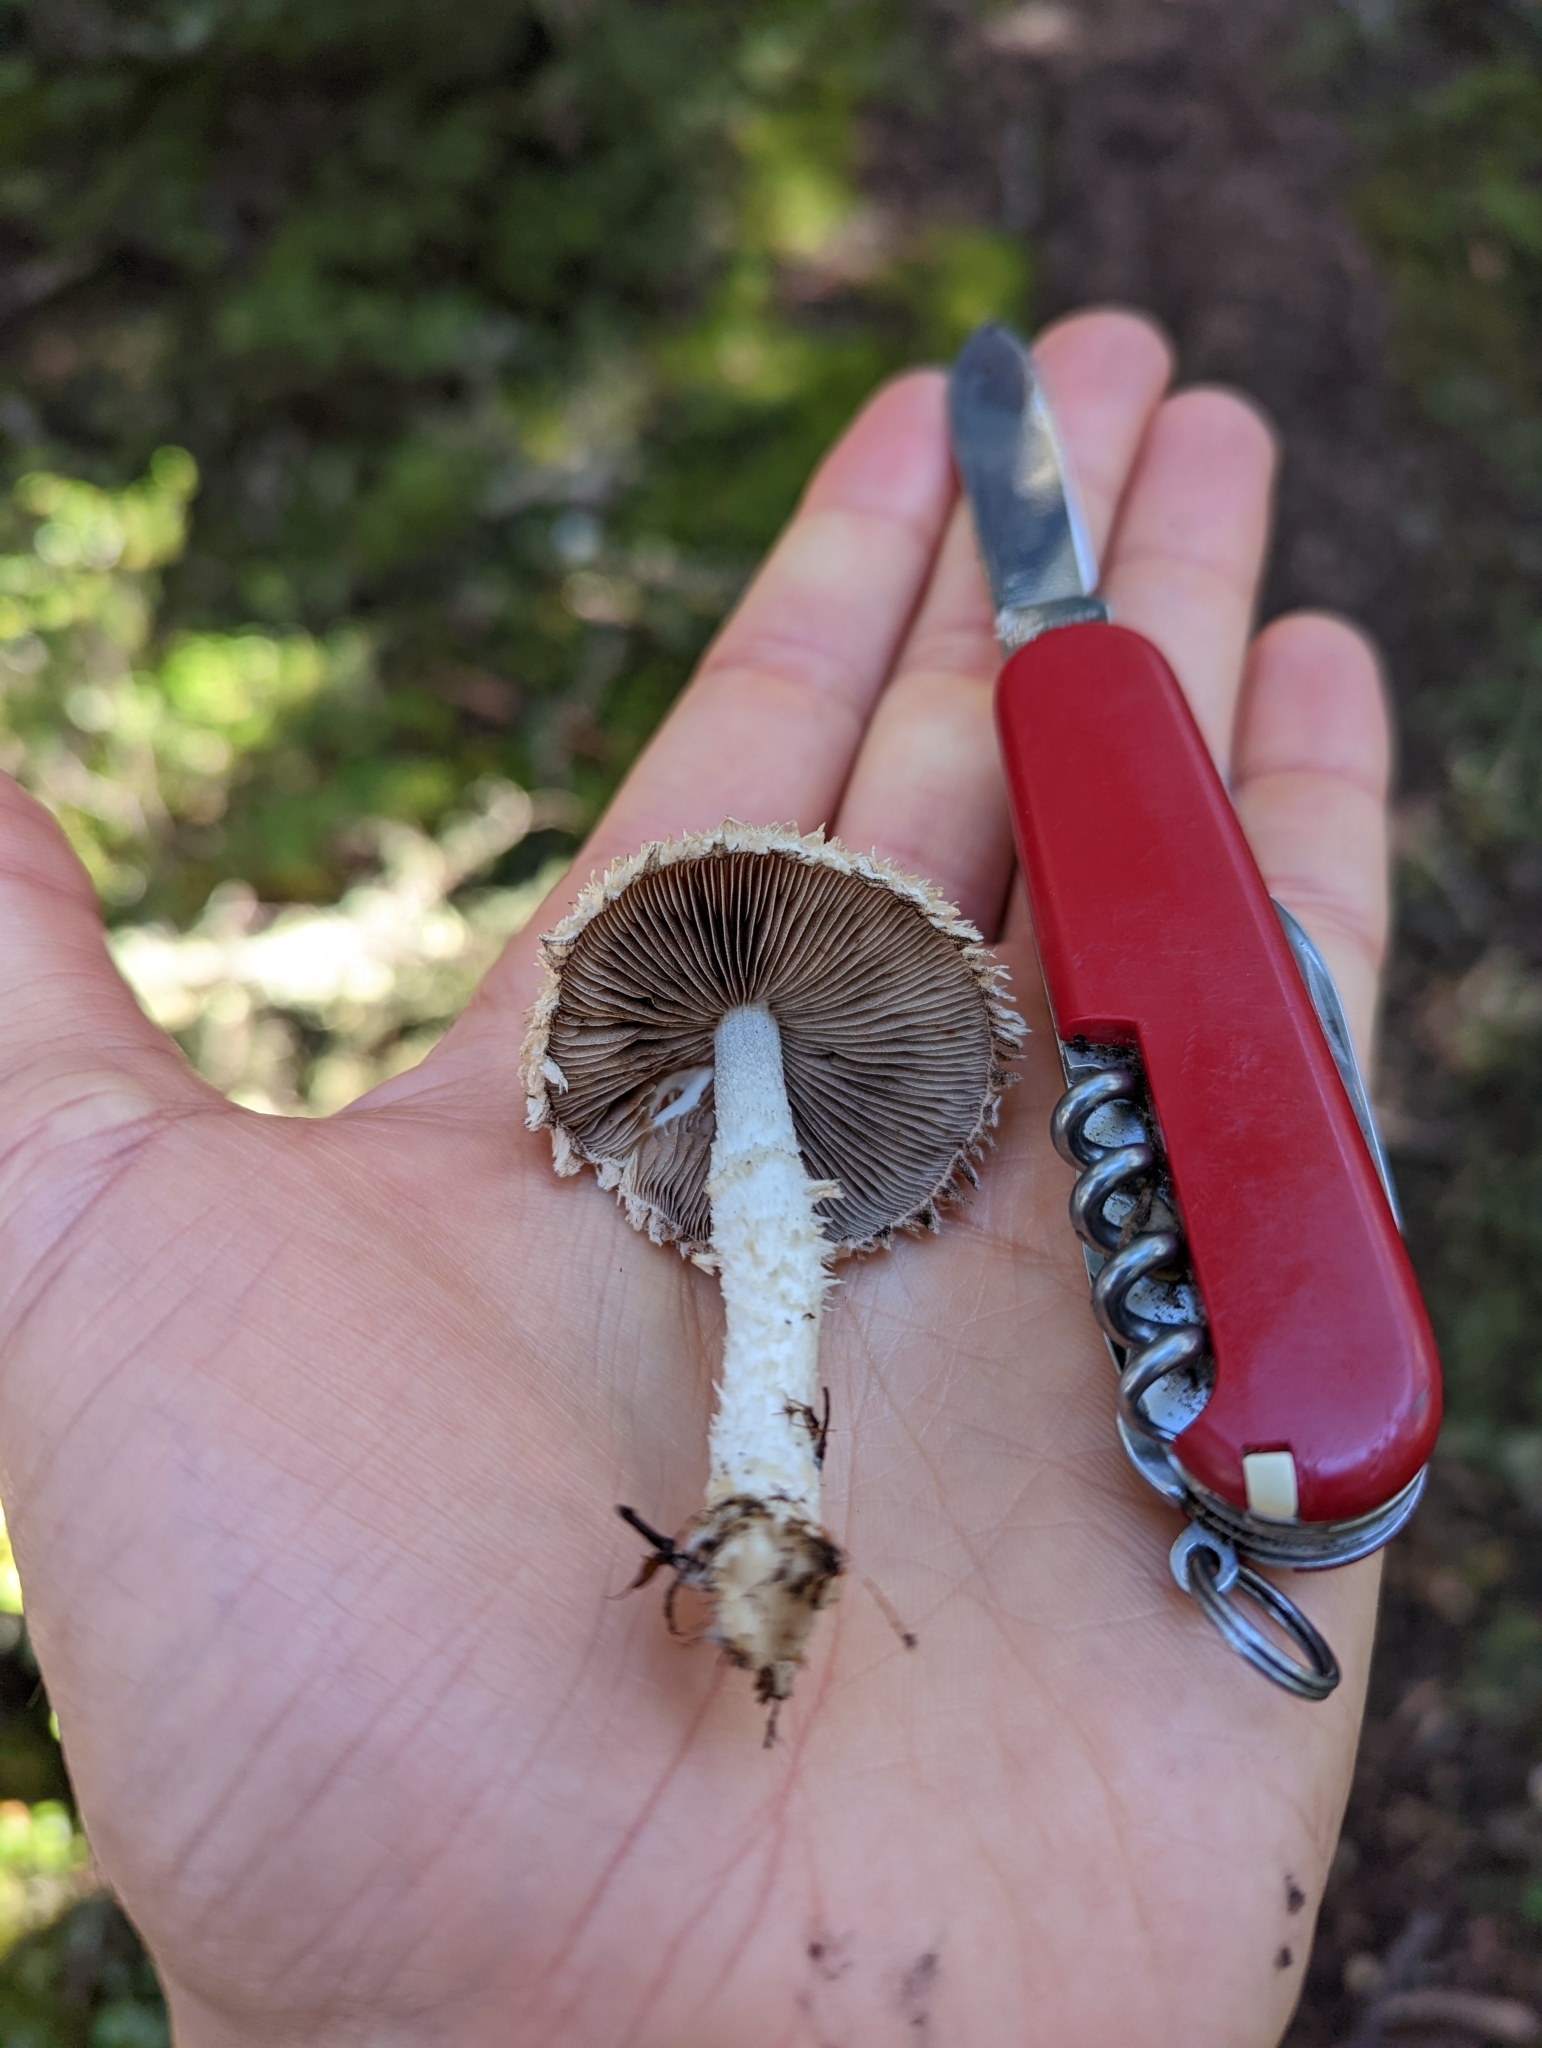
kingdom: Fungi
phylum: Basidiomycota
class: Agaricomycetes
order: Agaricales
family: Psathyrellaceae
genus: Psathyrella
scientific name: Psathyrella asperospora
